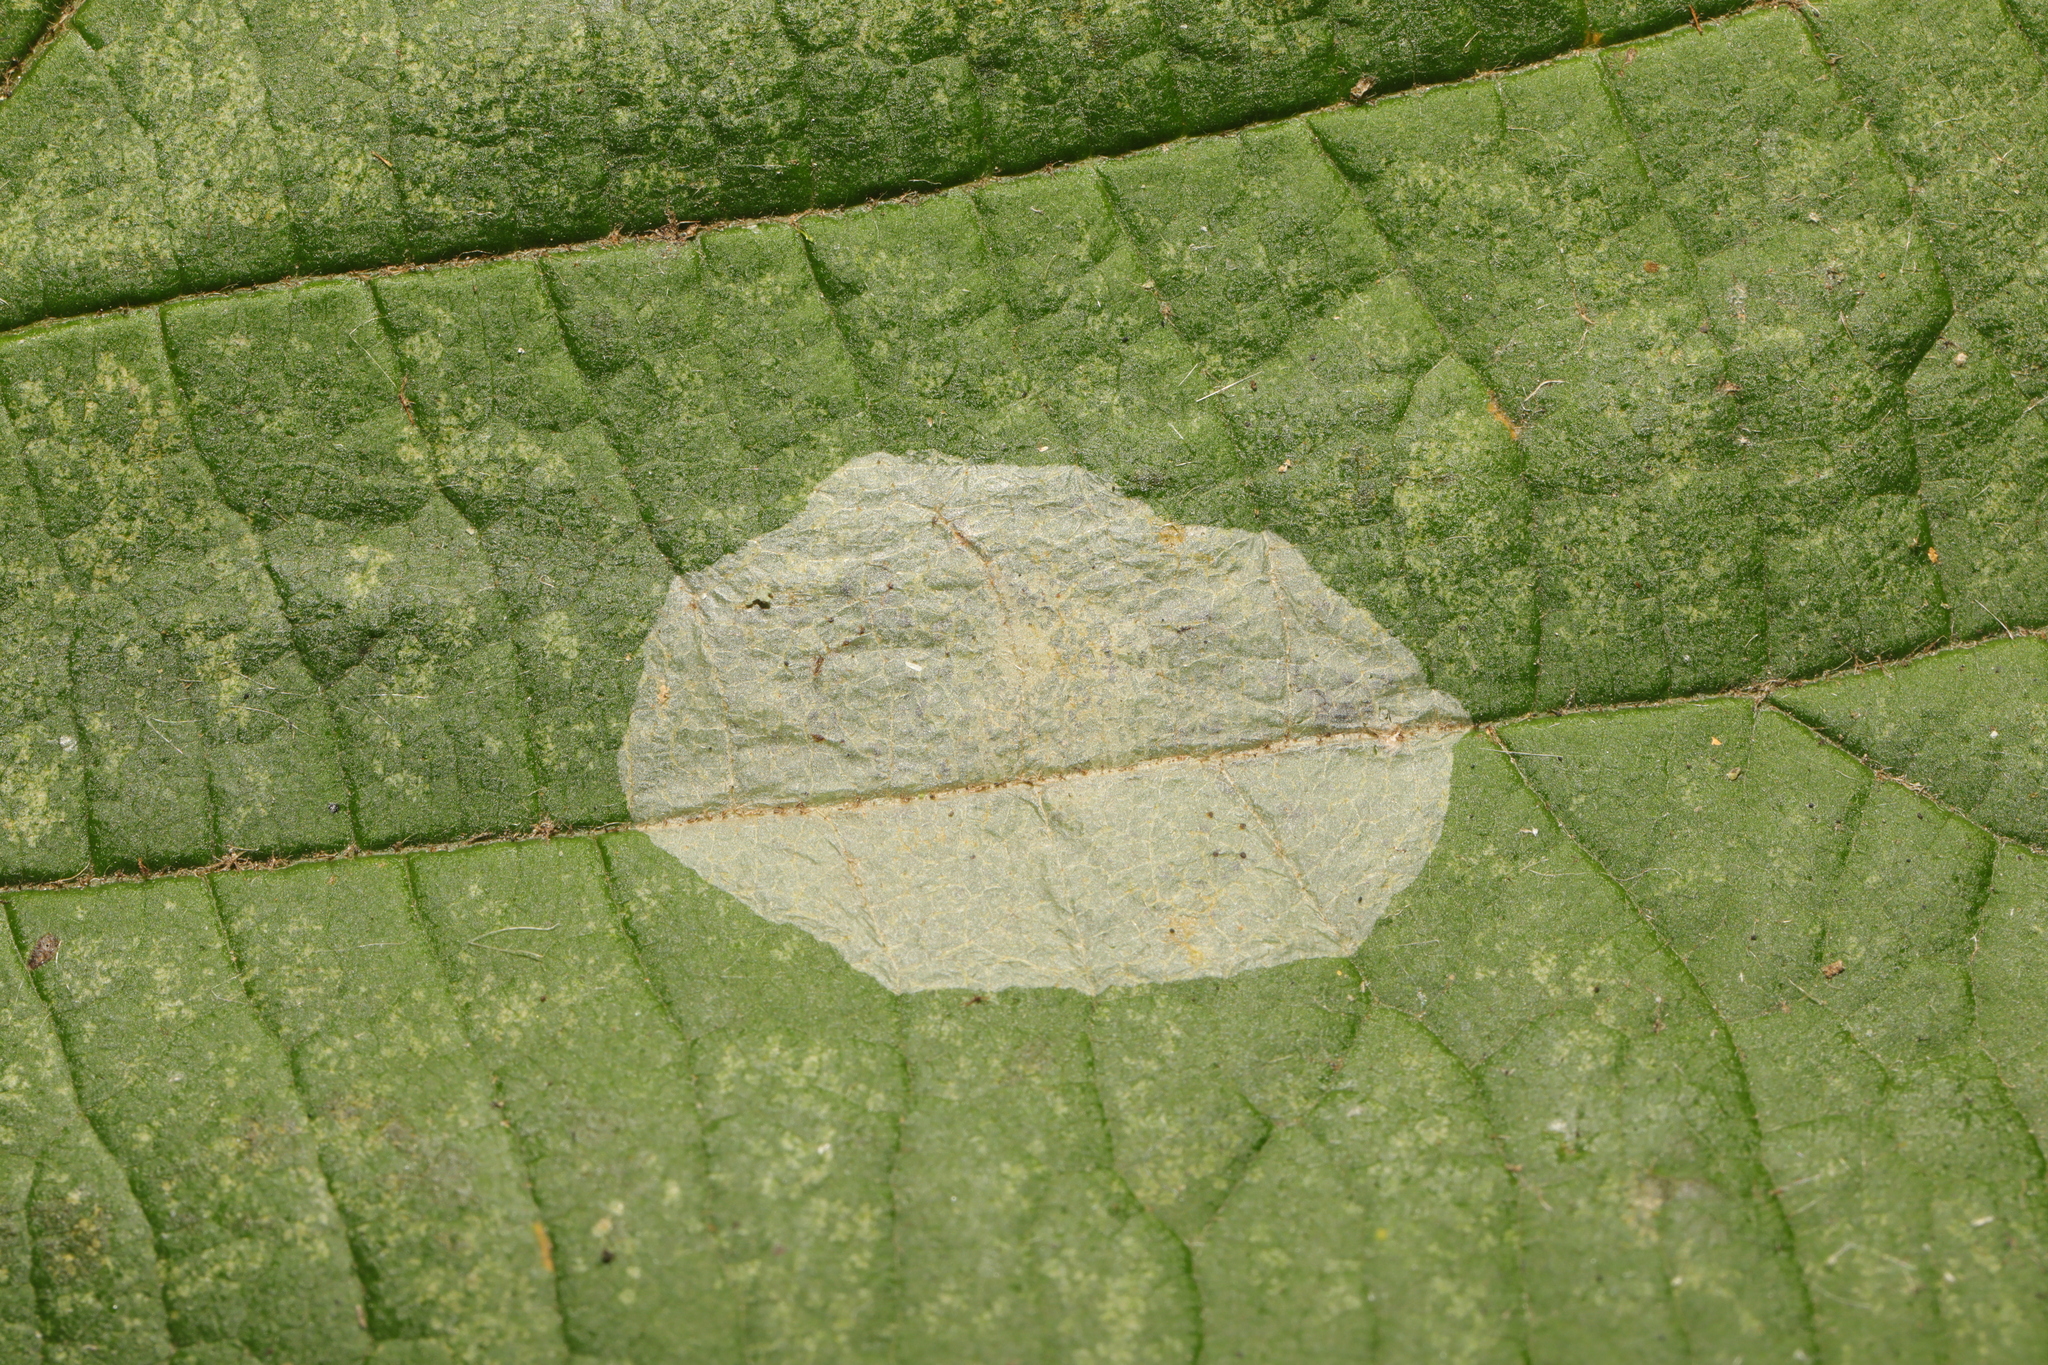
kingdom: Animalia
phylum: Arthropoda
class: Insecta
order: Lepidoptera
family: Gracillariidae
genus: Phyllonorycter
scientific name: Phyllonorycter coryli
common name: Nut-leaf blister moth
